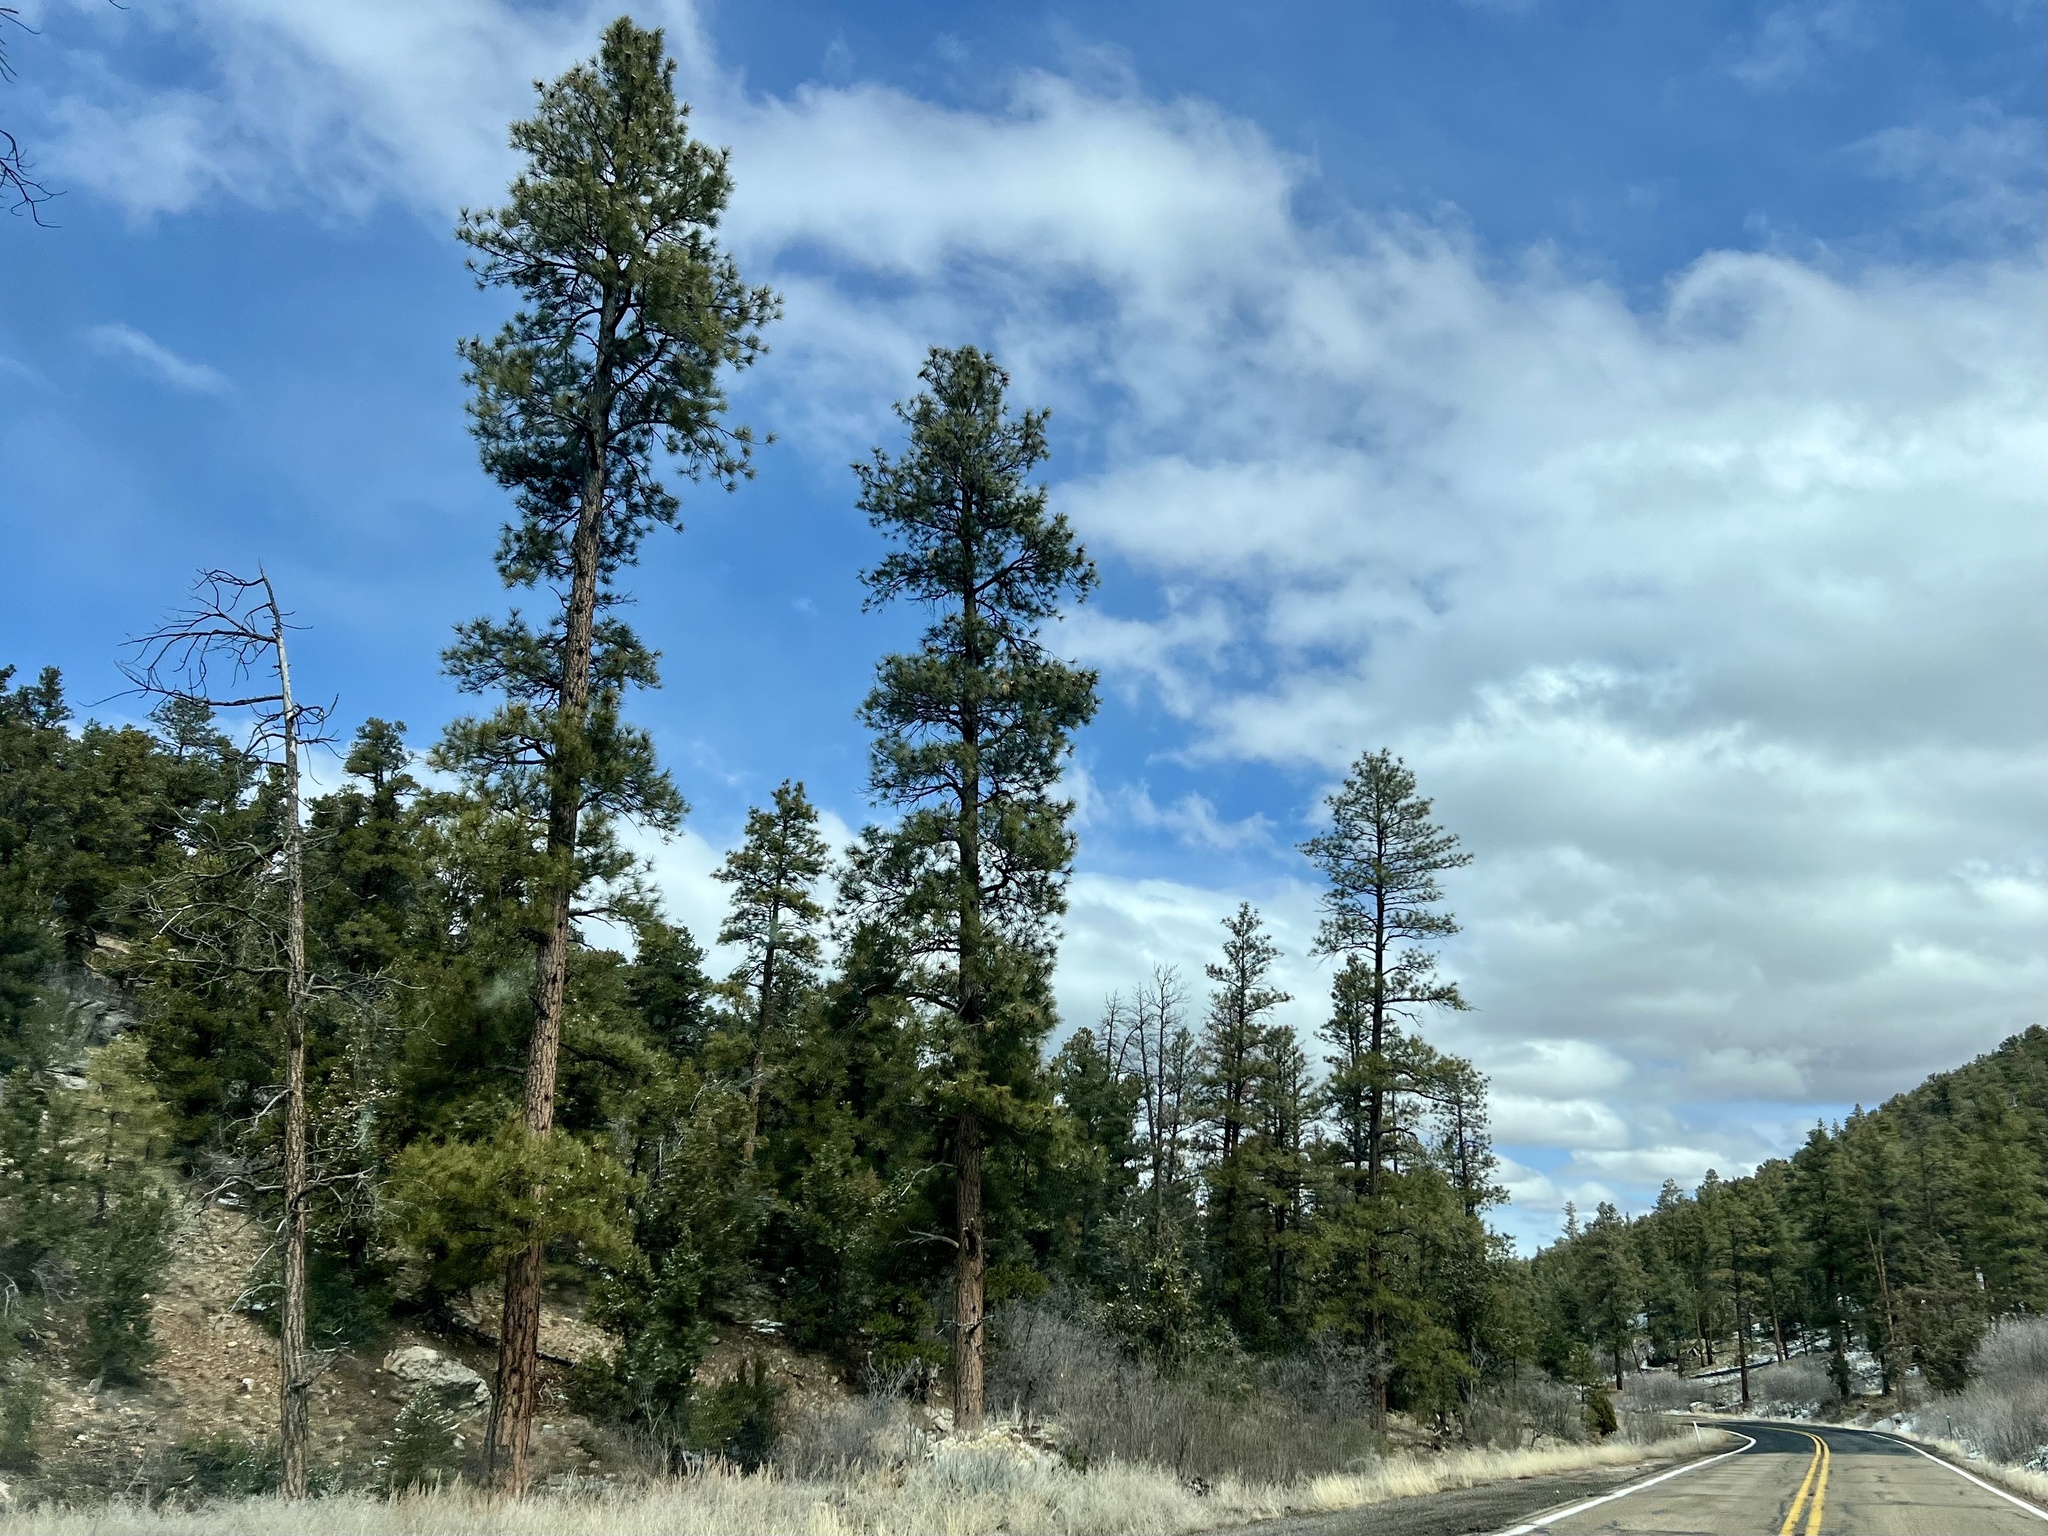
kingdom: Plantae
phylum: Tracheophyta
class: Pinopsida
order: Pinales
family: Pinaceae
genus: Pinus
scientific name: Pinus ponderosa
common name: Western yellow-pine
